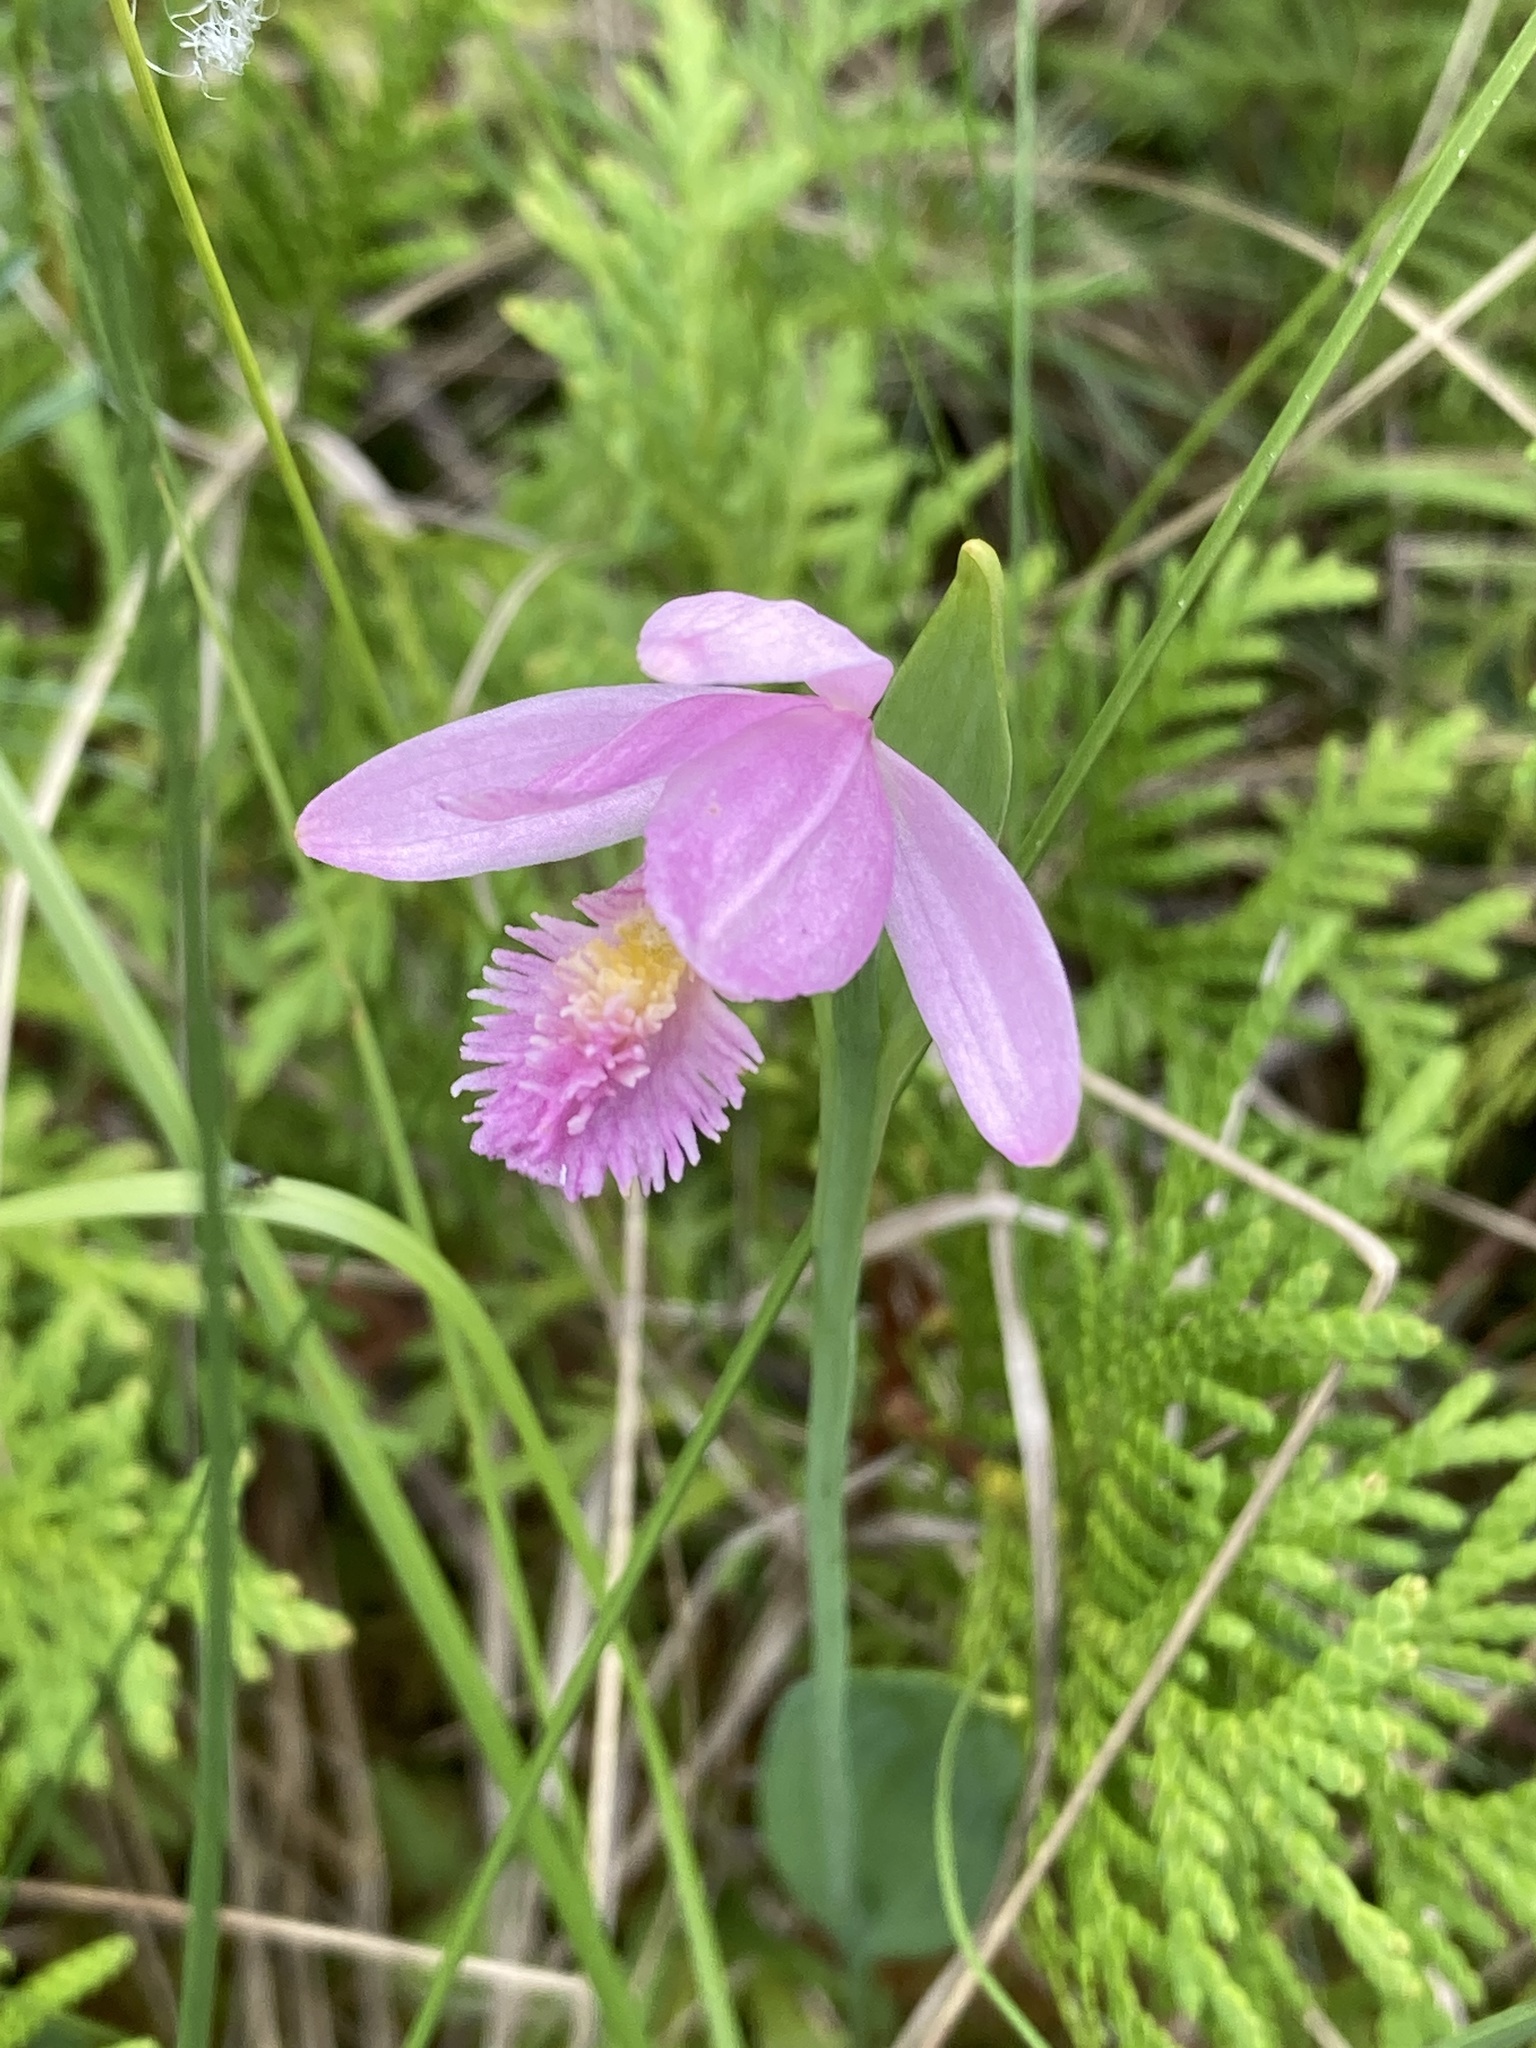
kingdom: Plantae
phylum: Tracheophyta
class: Liliopsida
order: Asparagales
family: Orchidaceae
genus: Pogonia
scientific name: Pogonia ophioglossoides
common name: Rose pogonia
